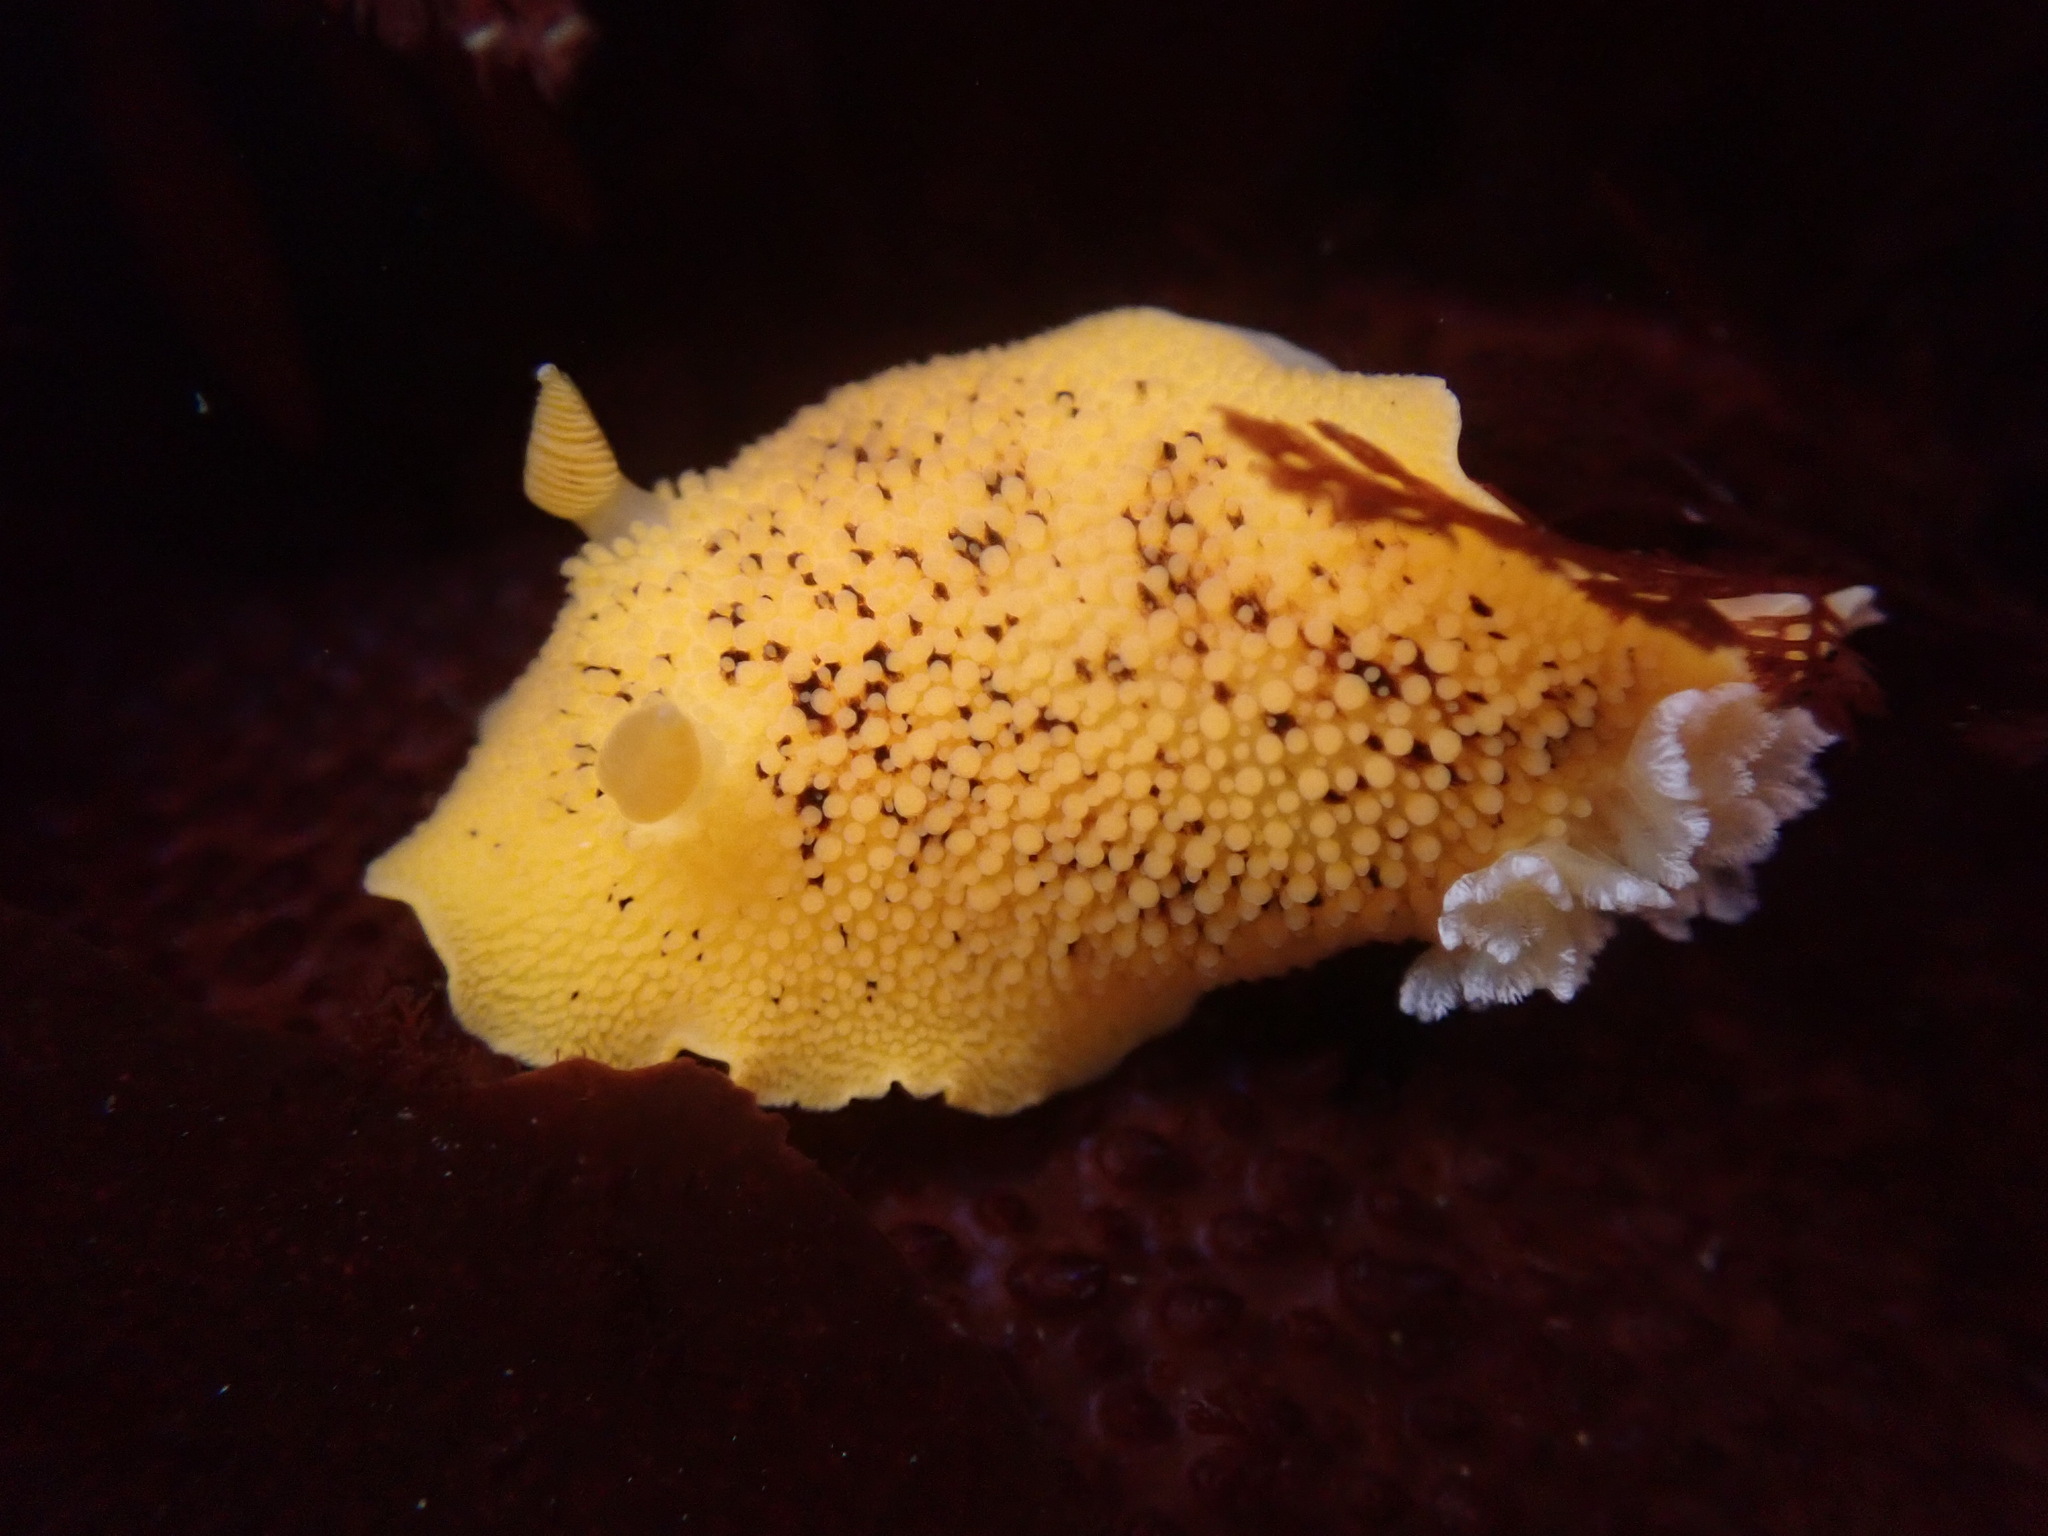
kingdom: Animalia
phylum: Mollusca
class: Gastropoda
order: Nudibranchia
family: Discodorididae
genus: Peltodoris
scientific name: Peltodoris nobilis
